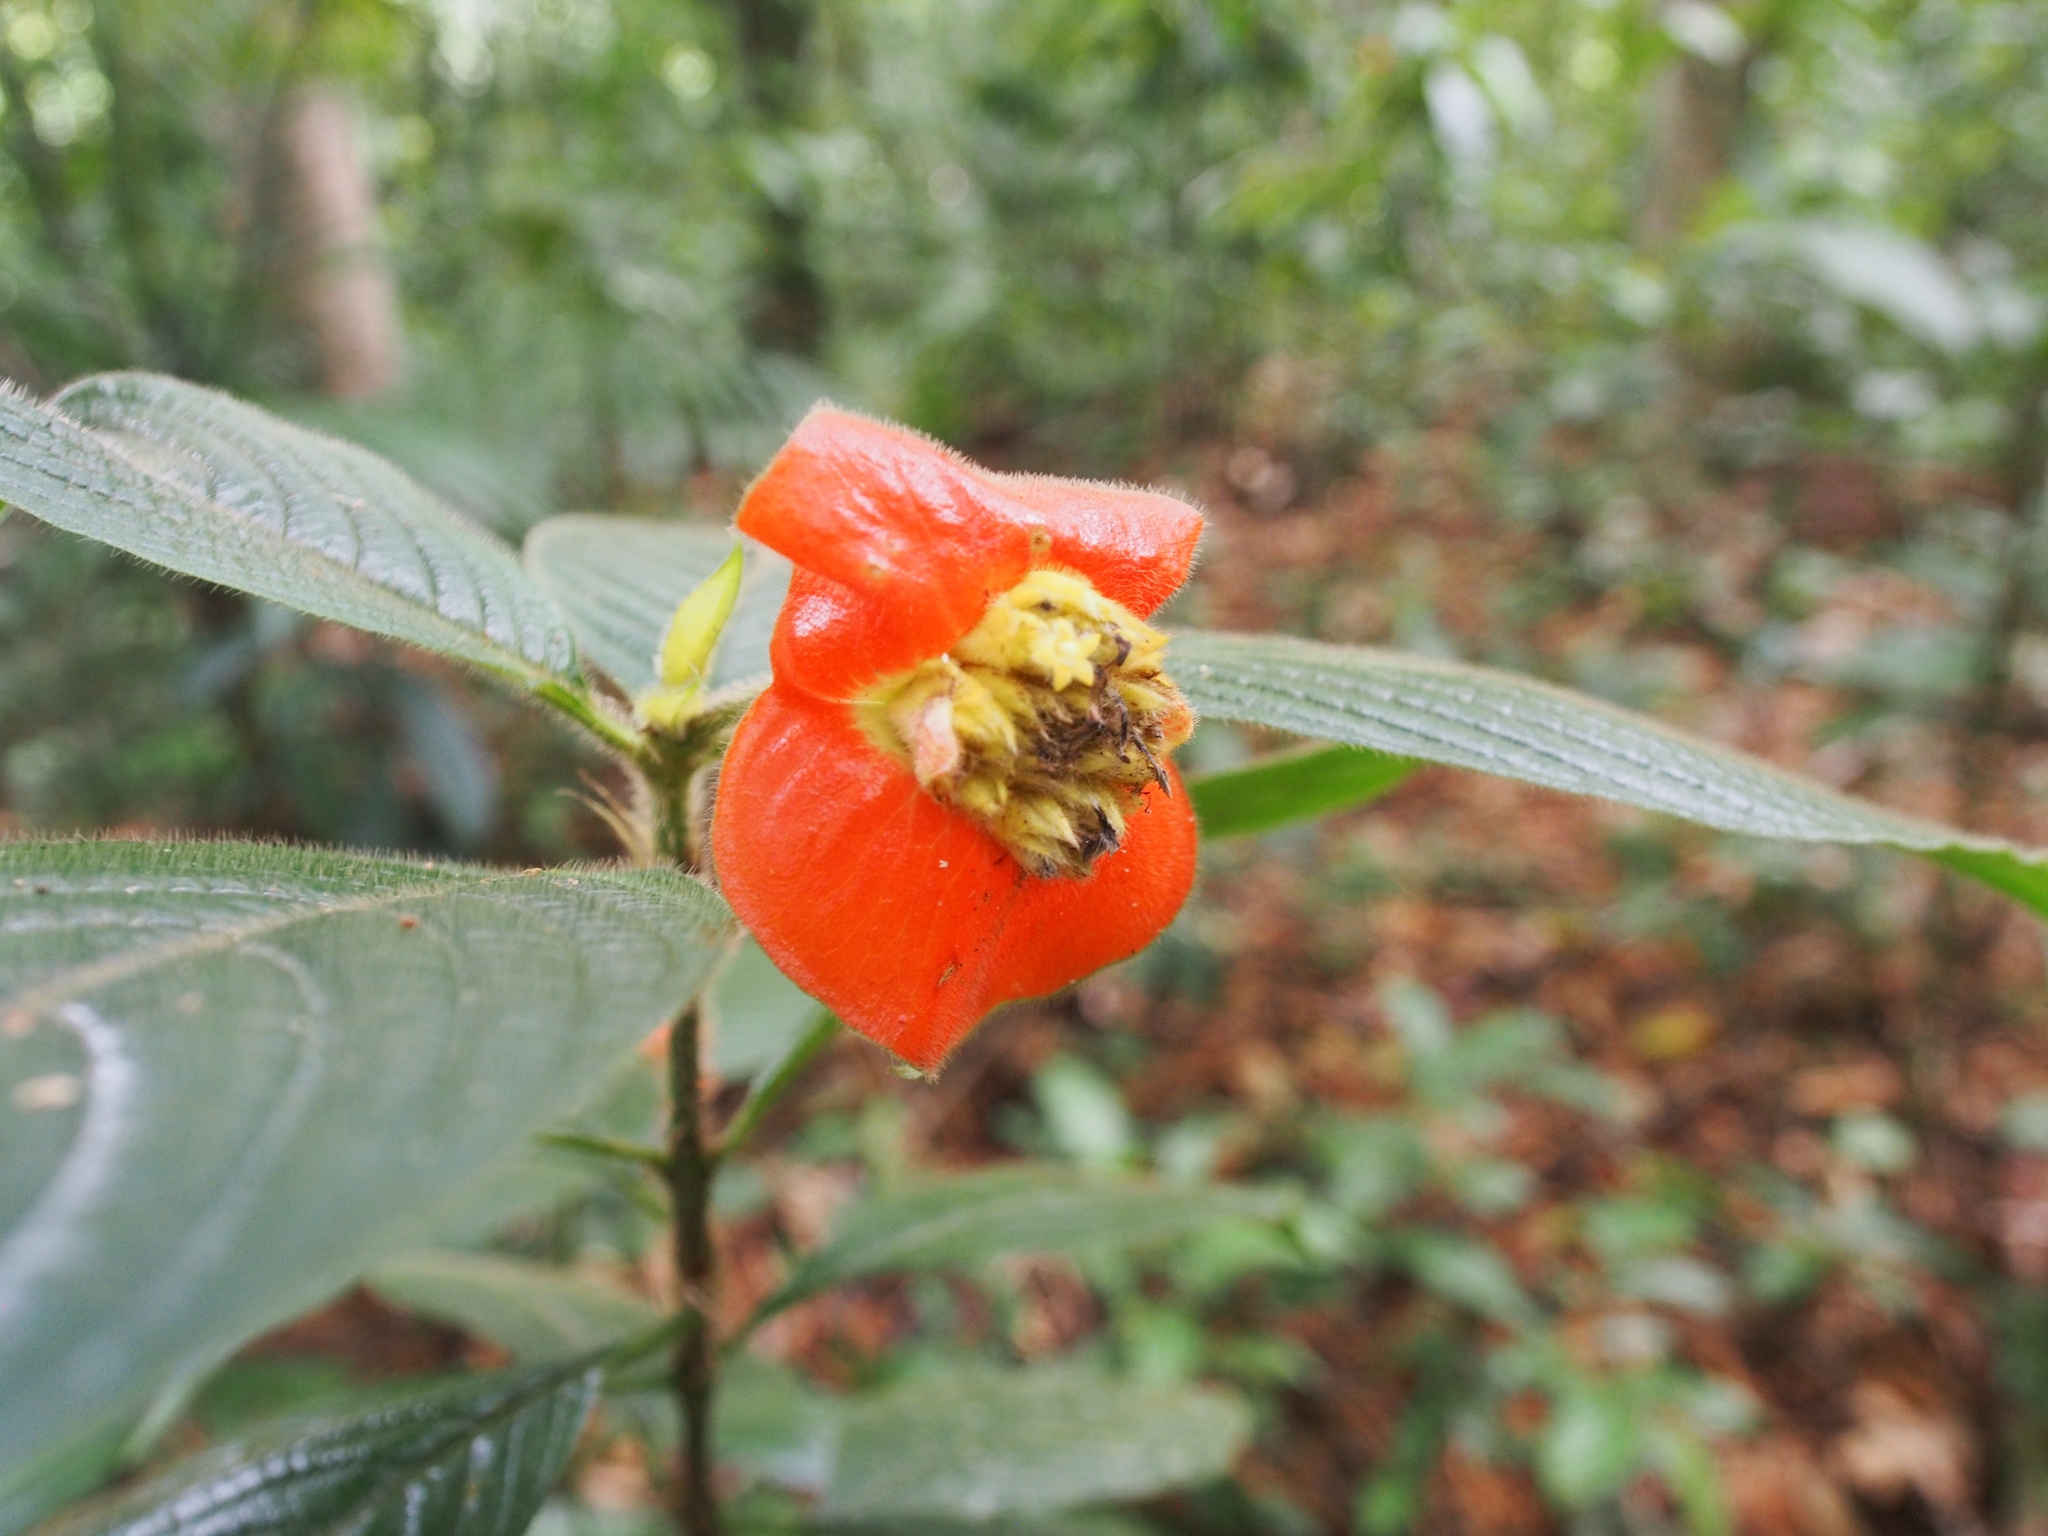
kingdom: Plantae
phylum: Tracheophyta
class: Magnoliopsida
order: Gentianales
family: Rubiaceae
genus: Palicourea
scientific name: Palicourea tomentosa
